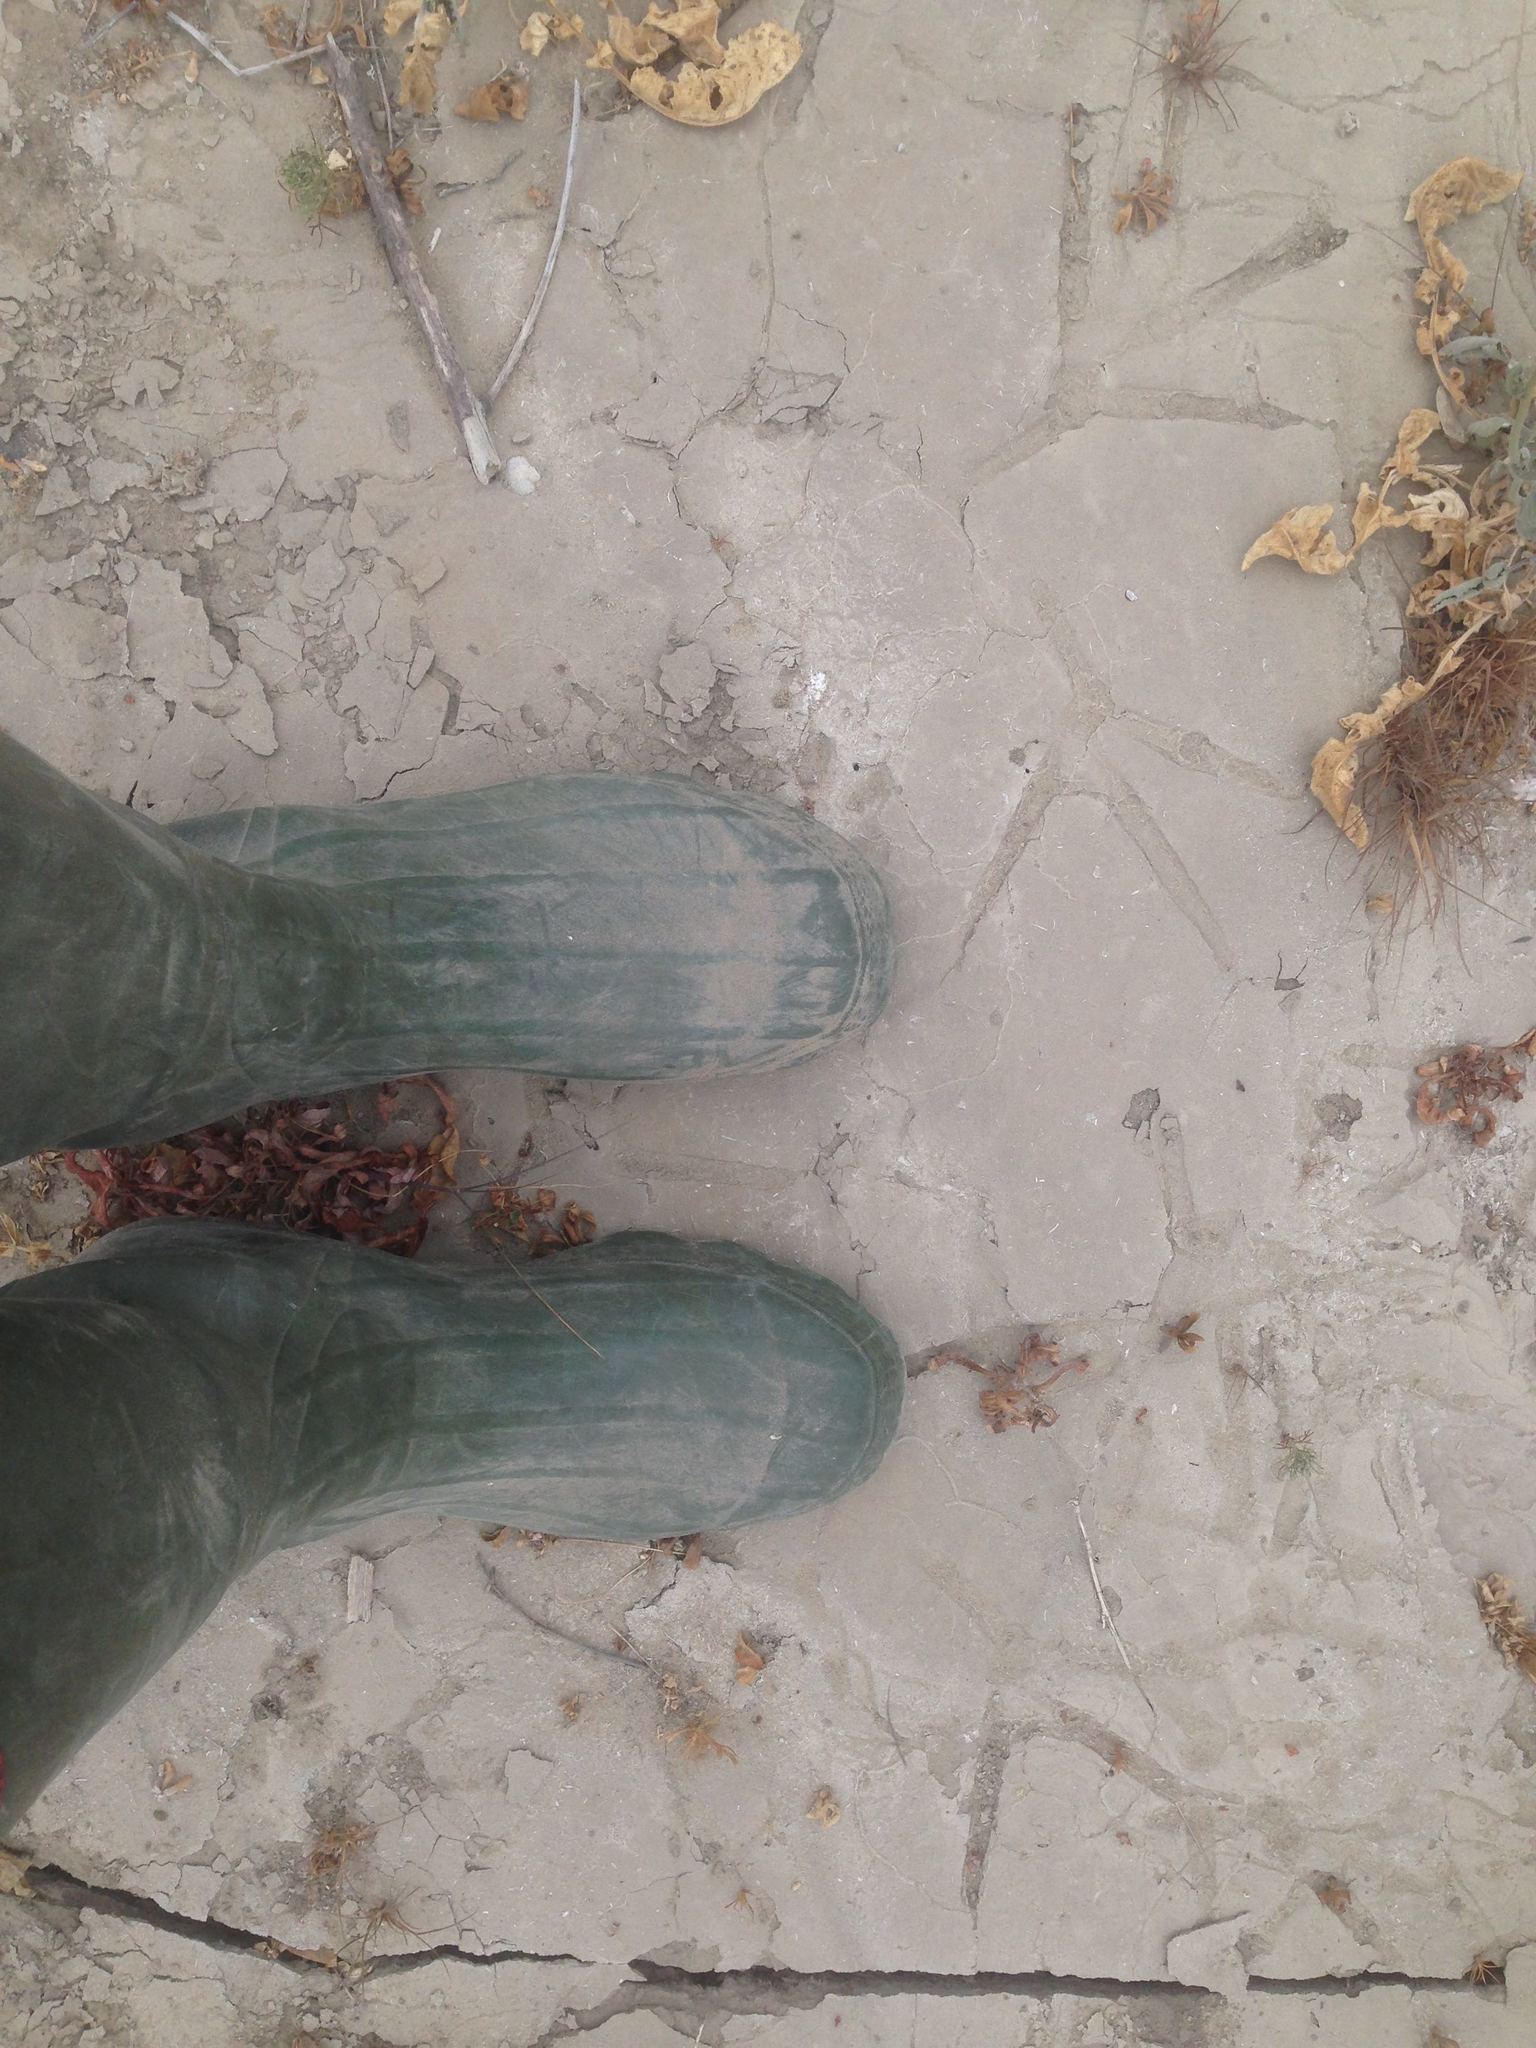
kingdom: Animalia
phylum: Chordata
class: Aves
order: Pelecaniformes
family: Ardeidae
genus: Ardea
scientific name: Ardea herodias
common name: Great blue heron
